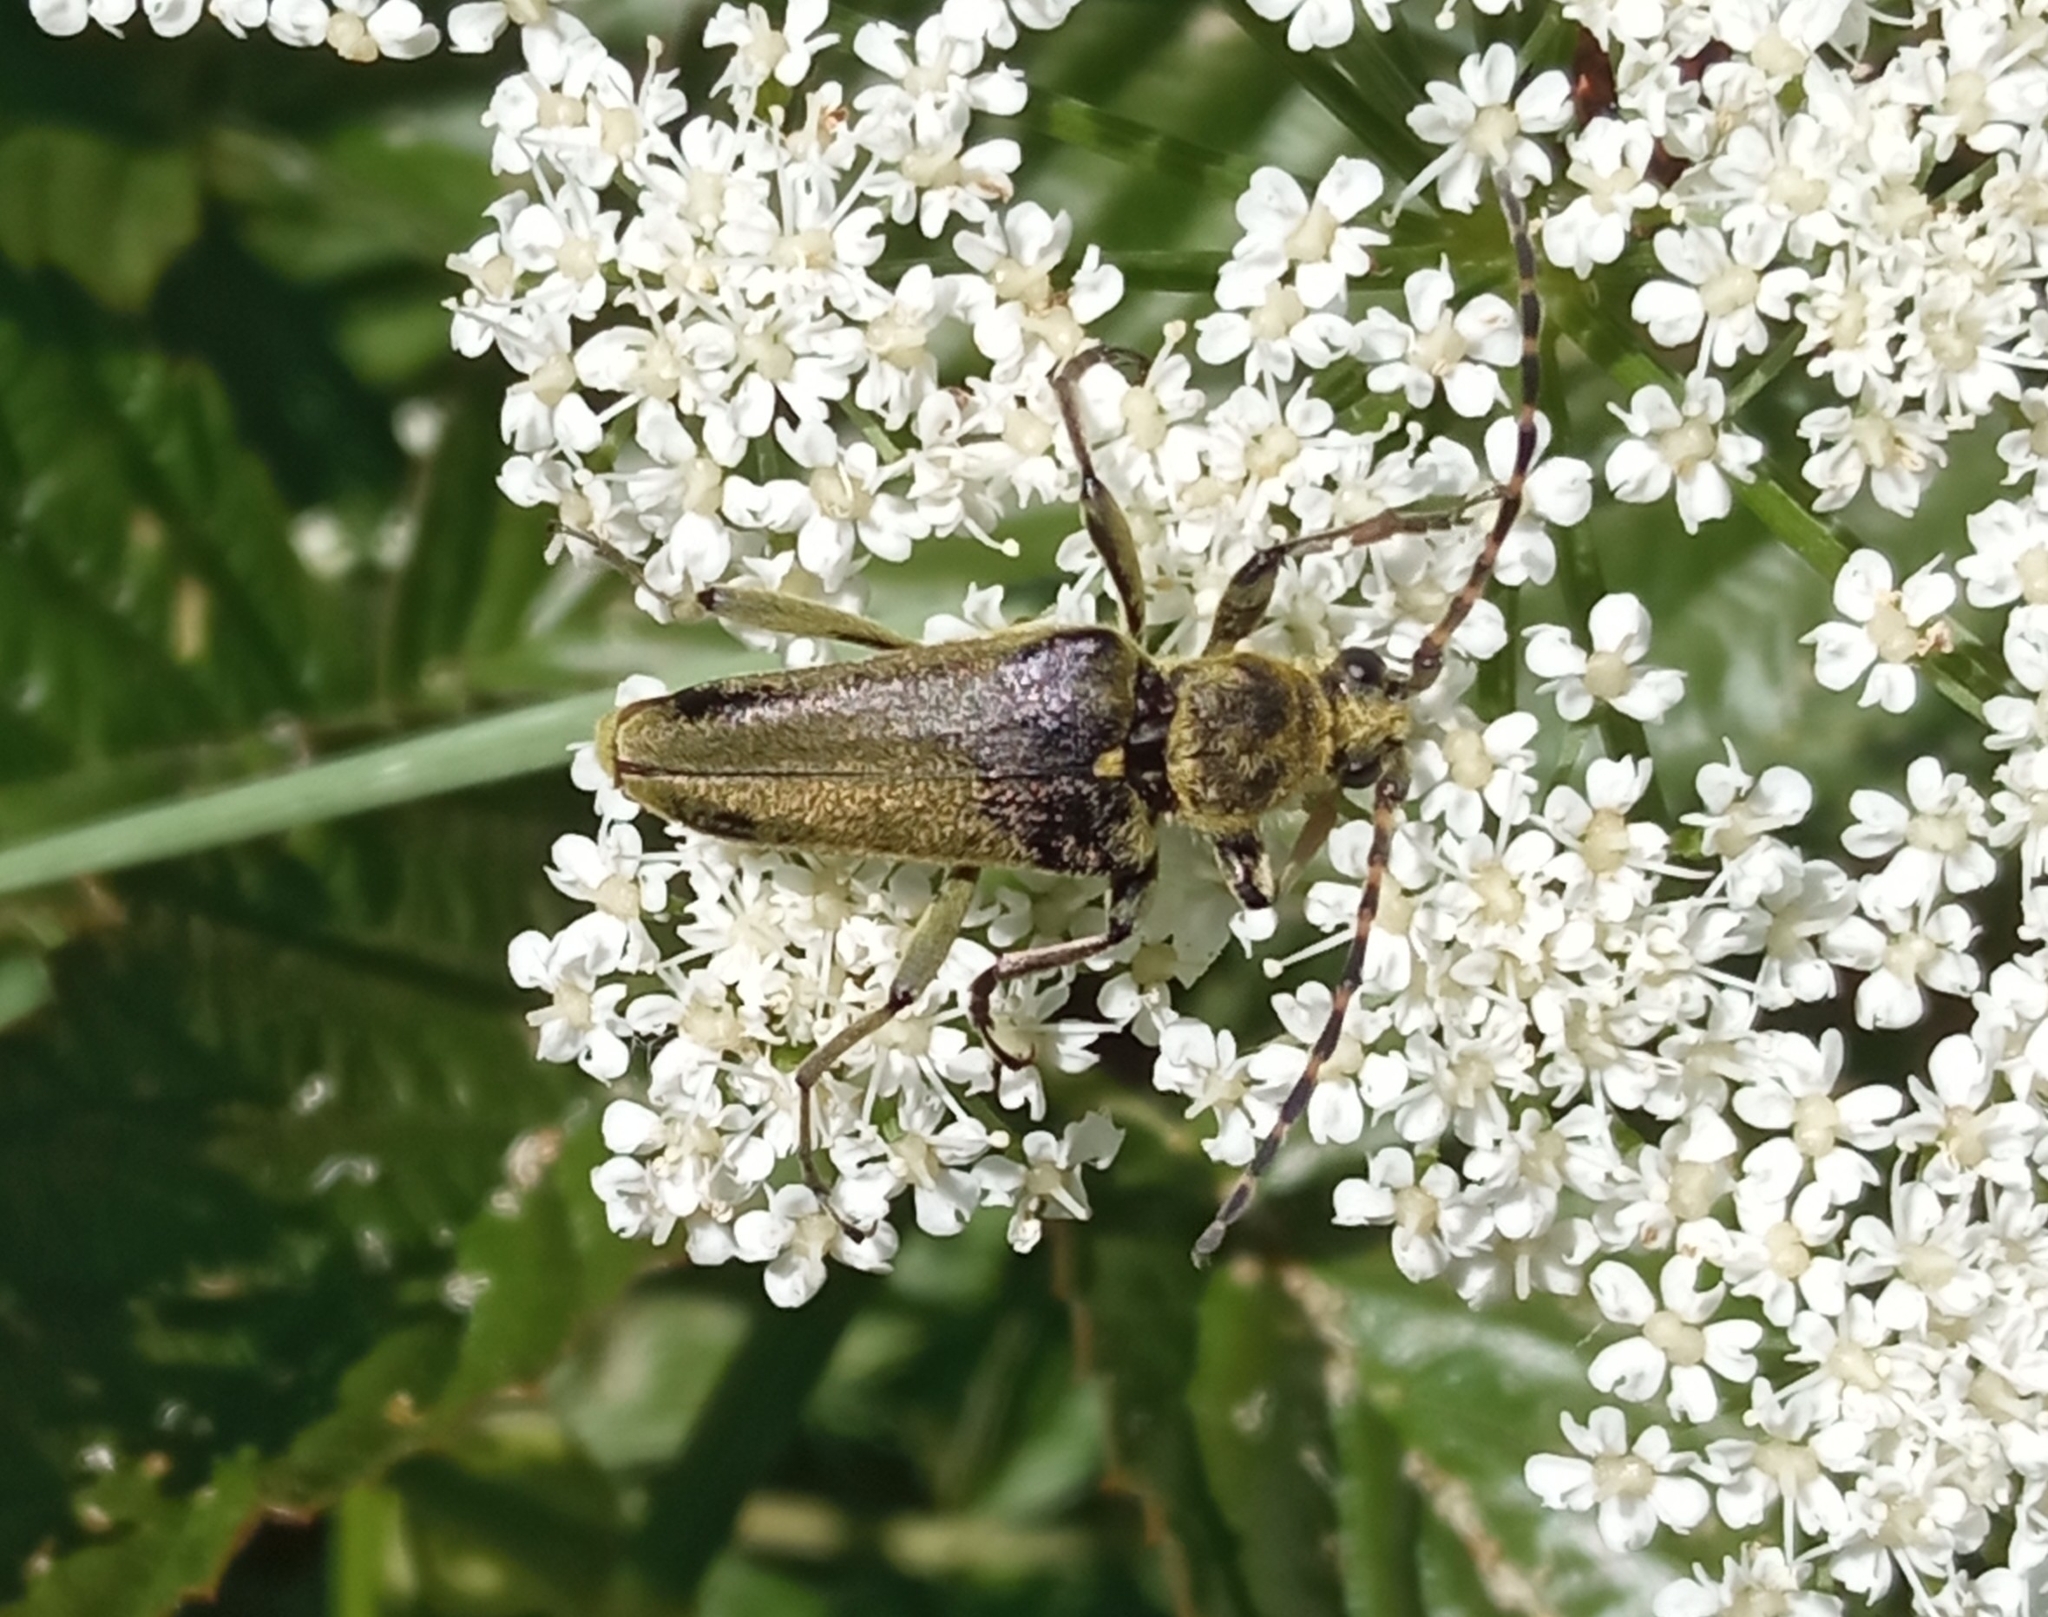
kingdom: Animalia
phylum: Arthropoda
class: Insecta
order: Coleoptera
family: Cerambycidae
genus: Lepturobosca
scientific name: Lepturobosca virens
